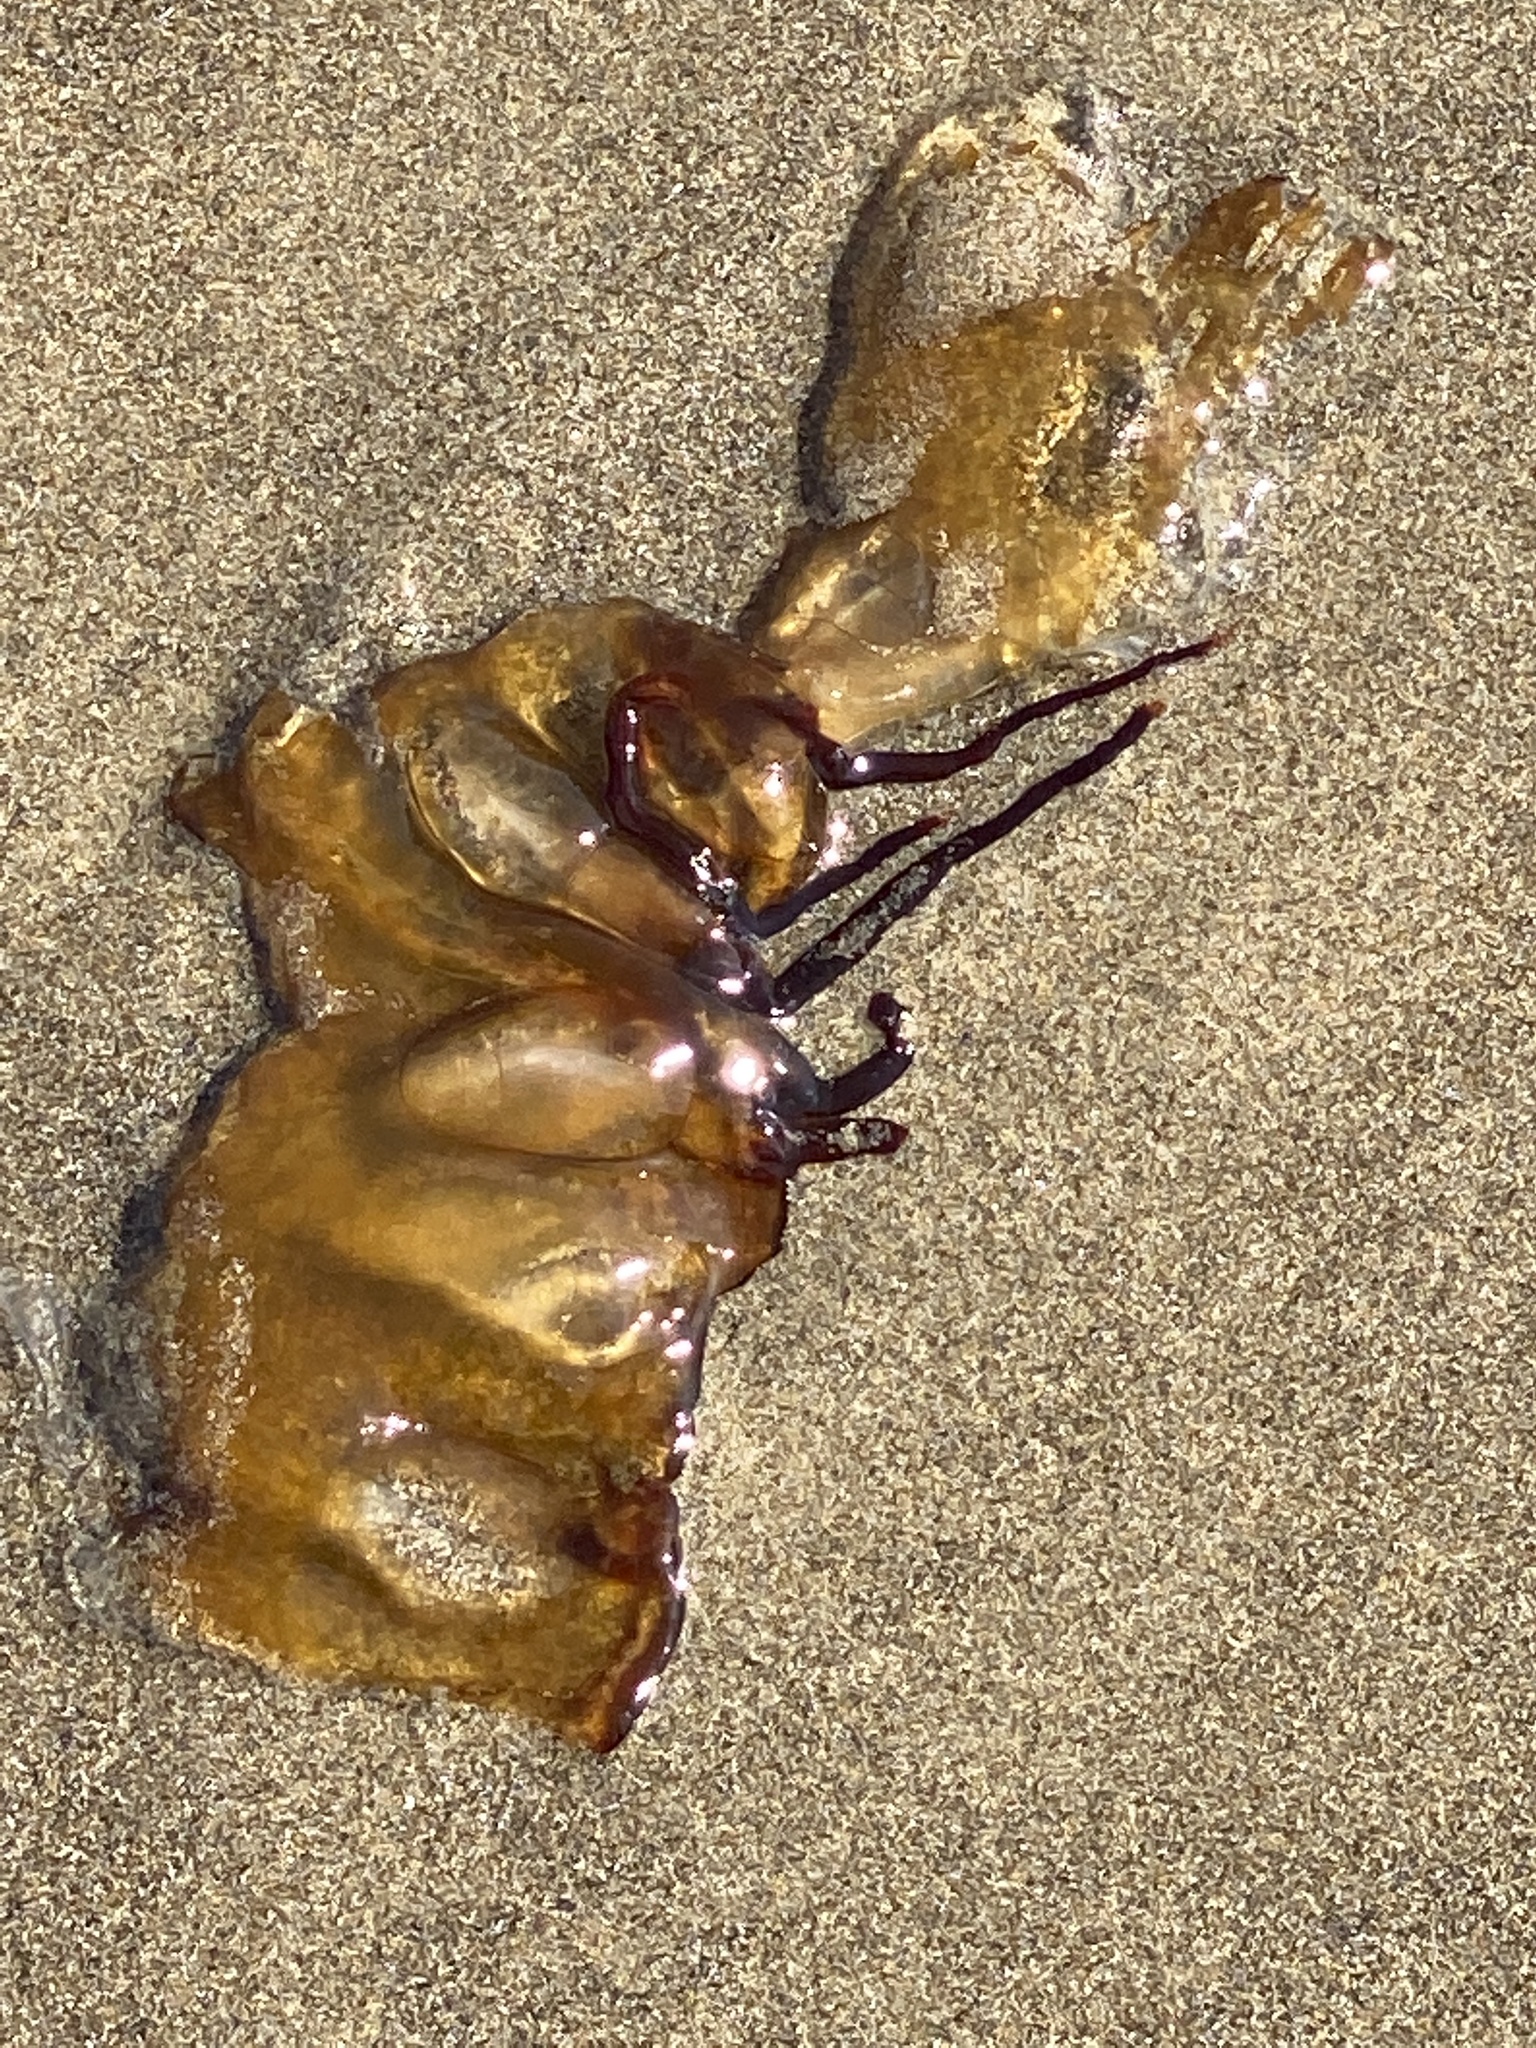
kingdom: Animalia
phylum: Cnidaria
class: Scyphozoa
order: Semaeostomeae
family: Pelagiidae
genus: Chrysaora
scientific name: Chrysaora fuscescens
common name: Sea nettle
